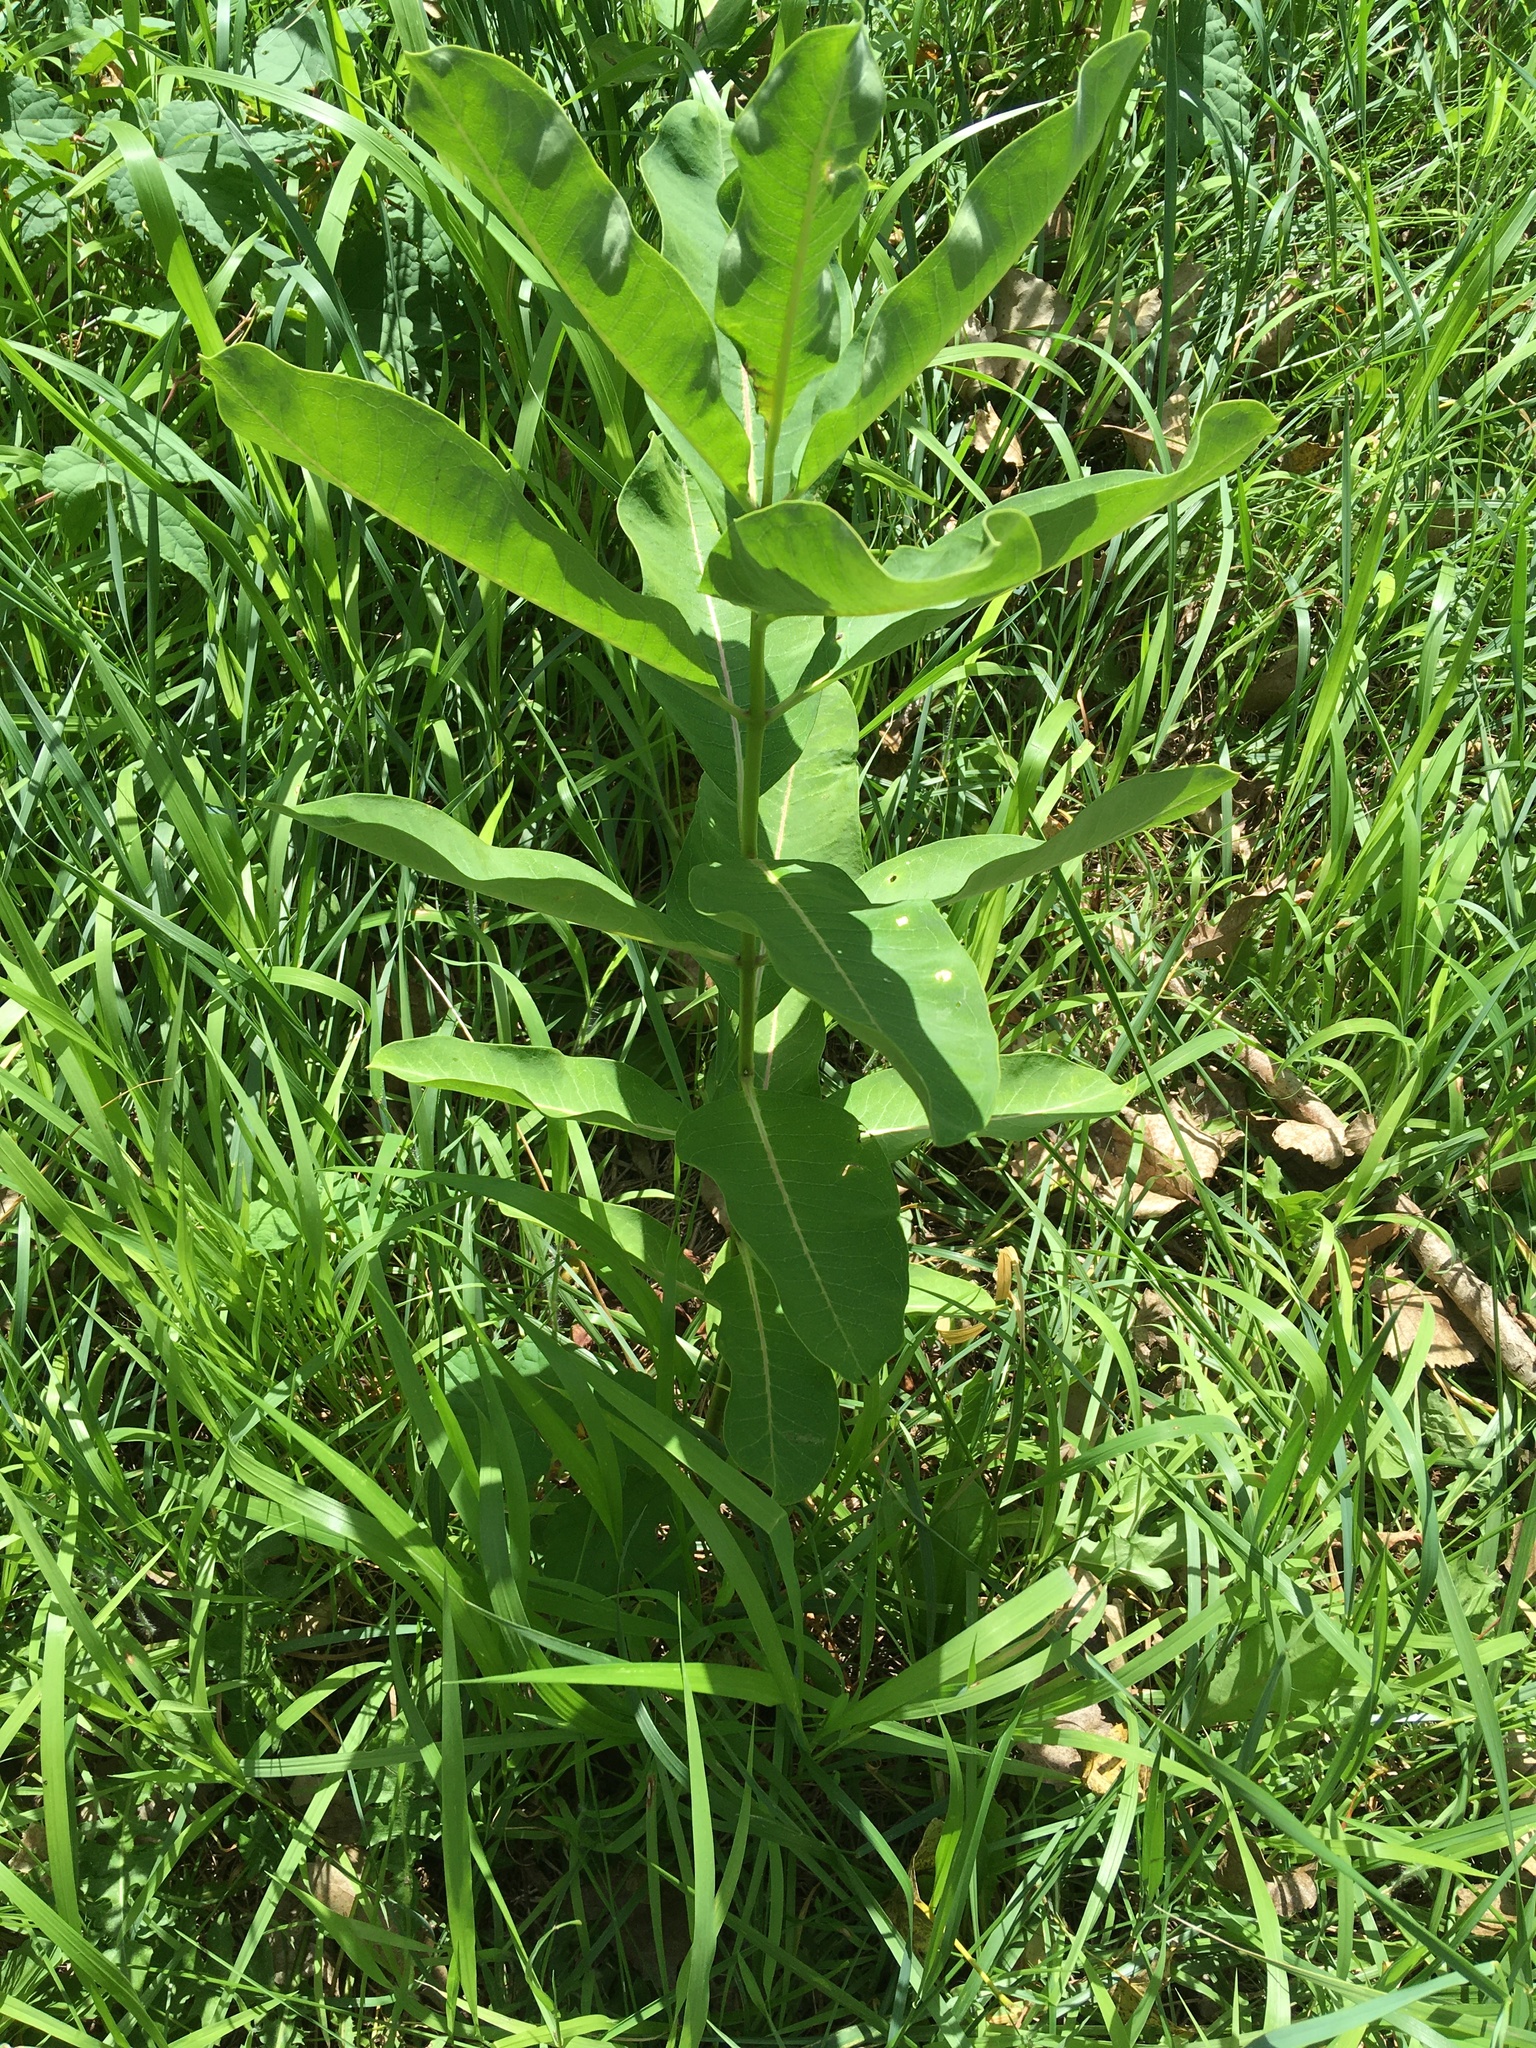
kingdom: Plantae
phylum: Tracheophyta
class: Magnoliopsida
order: Gentianales
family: Apocynaceae
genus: Asclepias
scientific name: Asclepias syriaca
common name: Common milkweed
